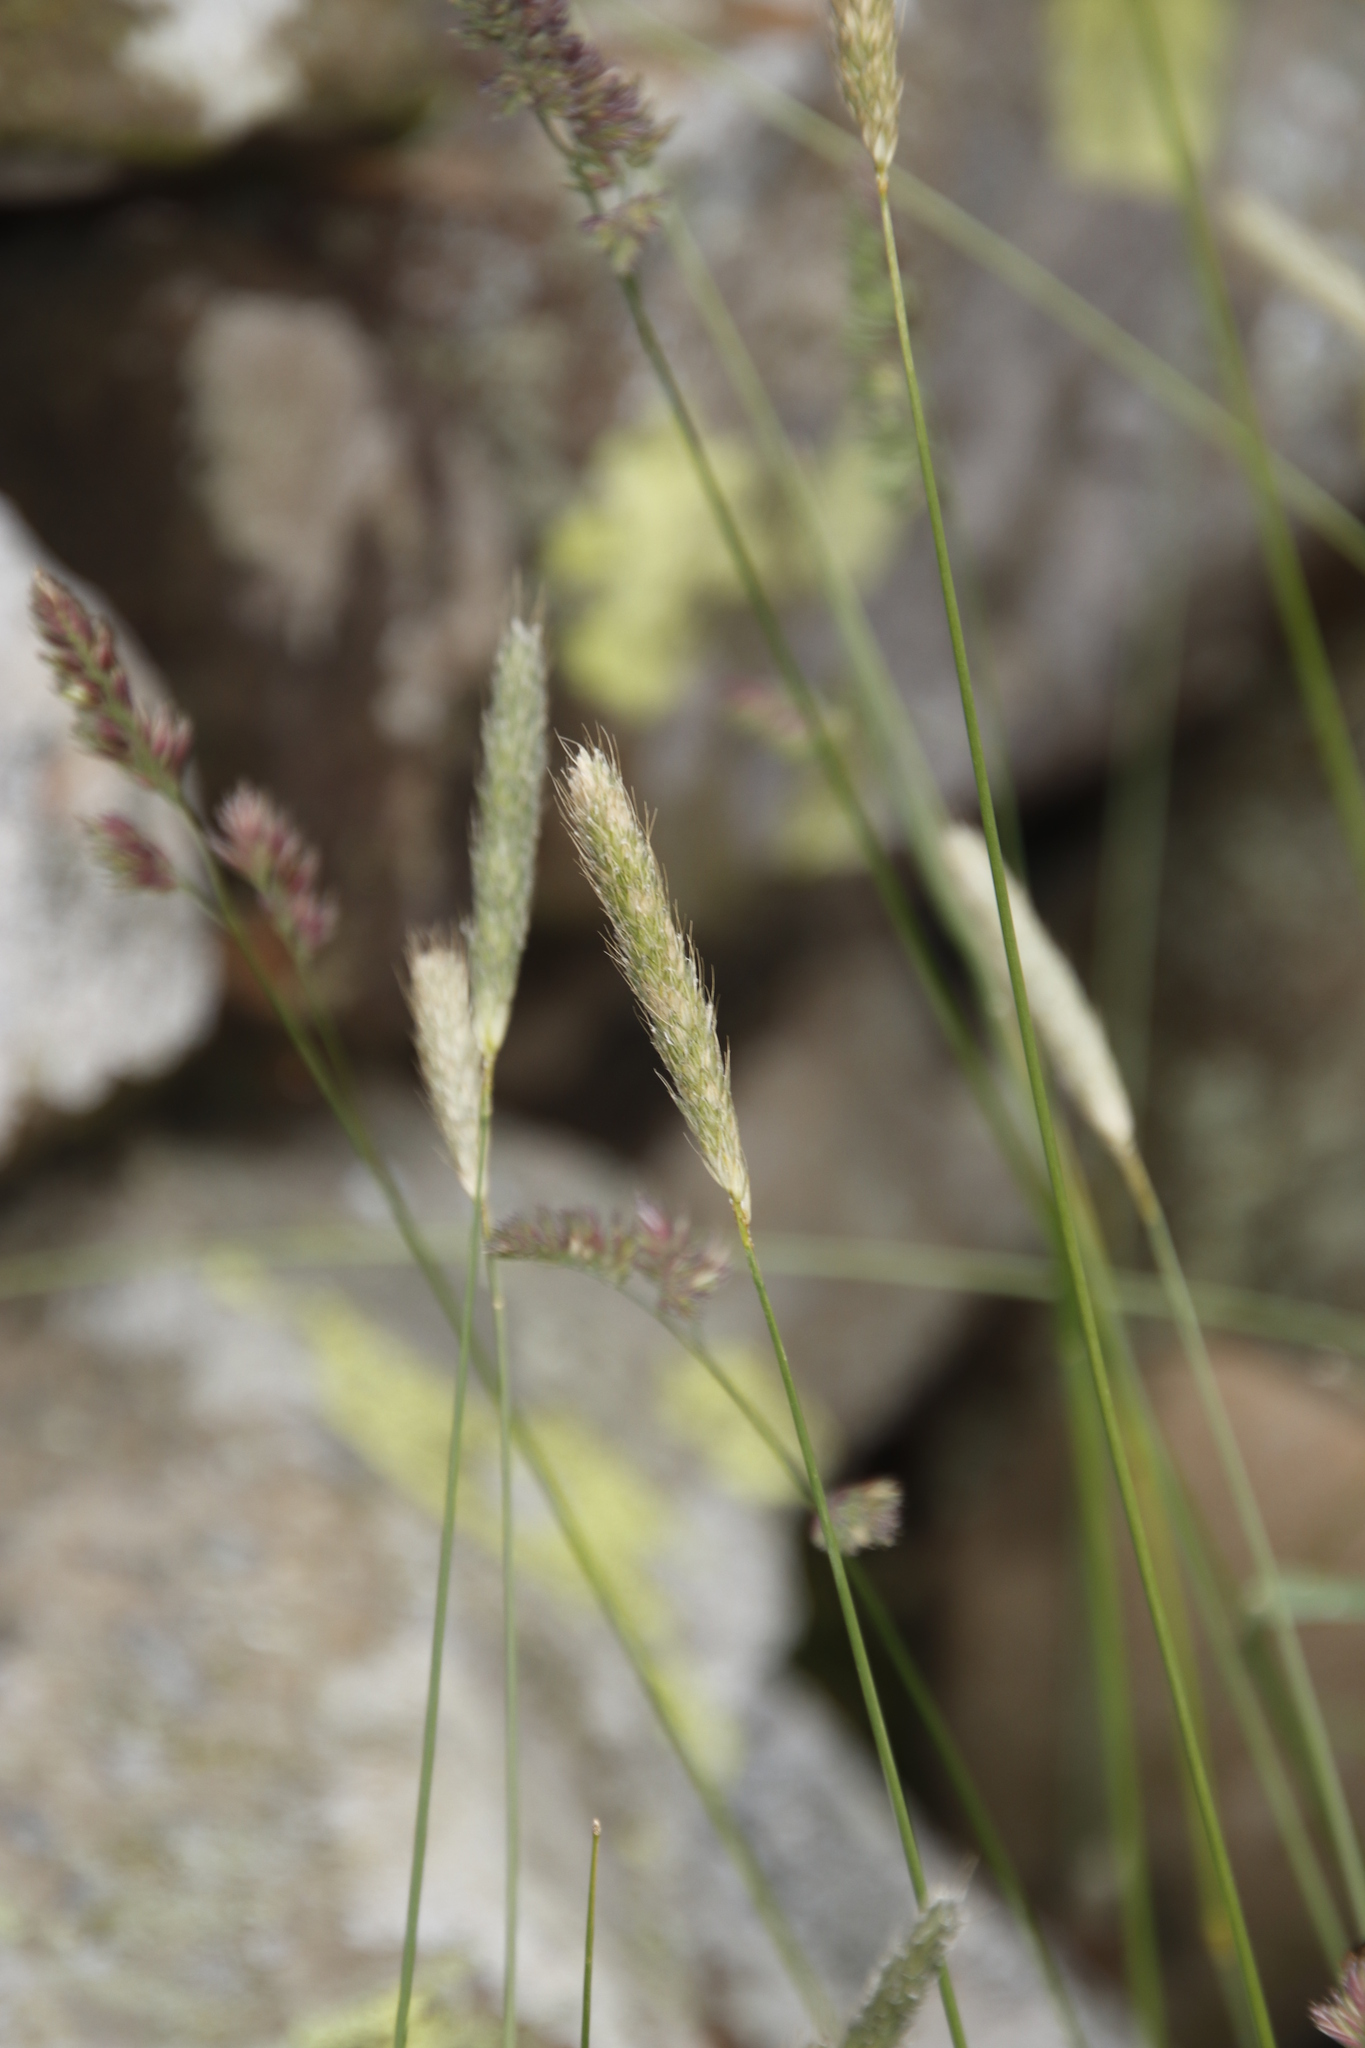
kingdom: Plantae
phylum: Tracheophyta
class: Liliopsida
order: Poales
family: Poaceae
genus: Alopecurus
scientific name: Alopecurus pratensis
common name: Meadow foxtail
